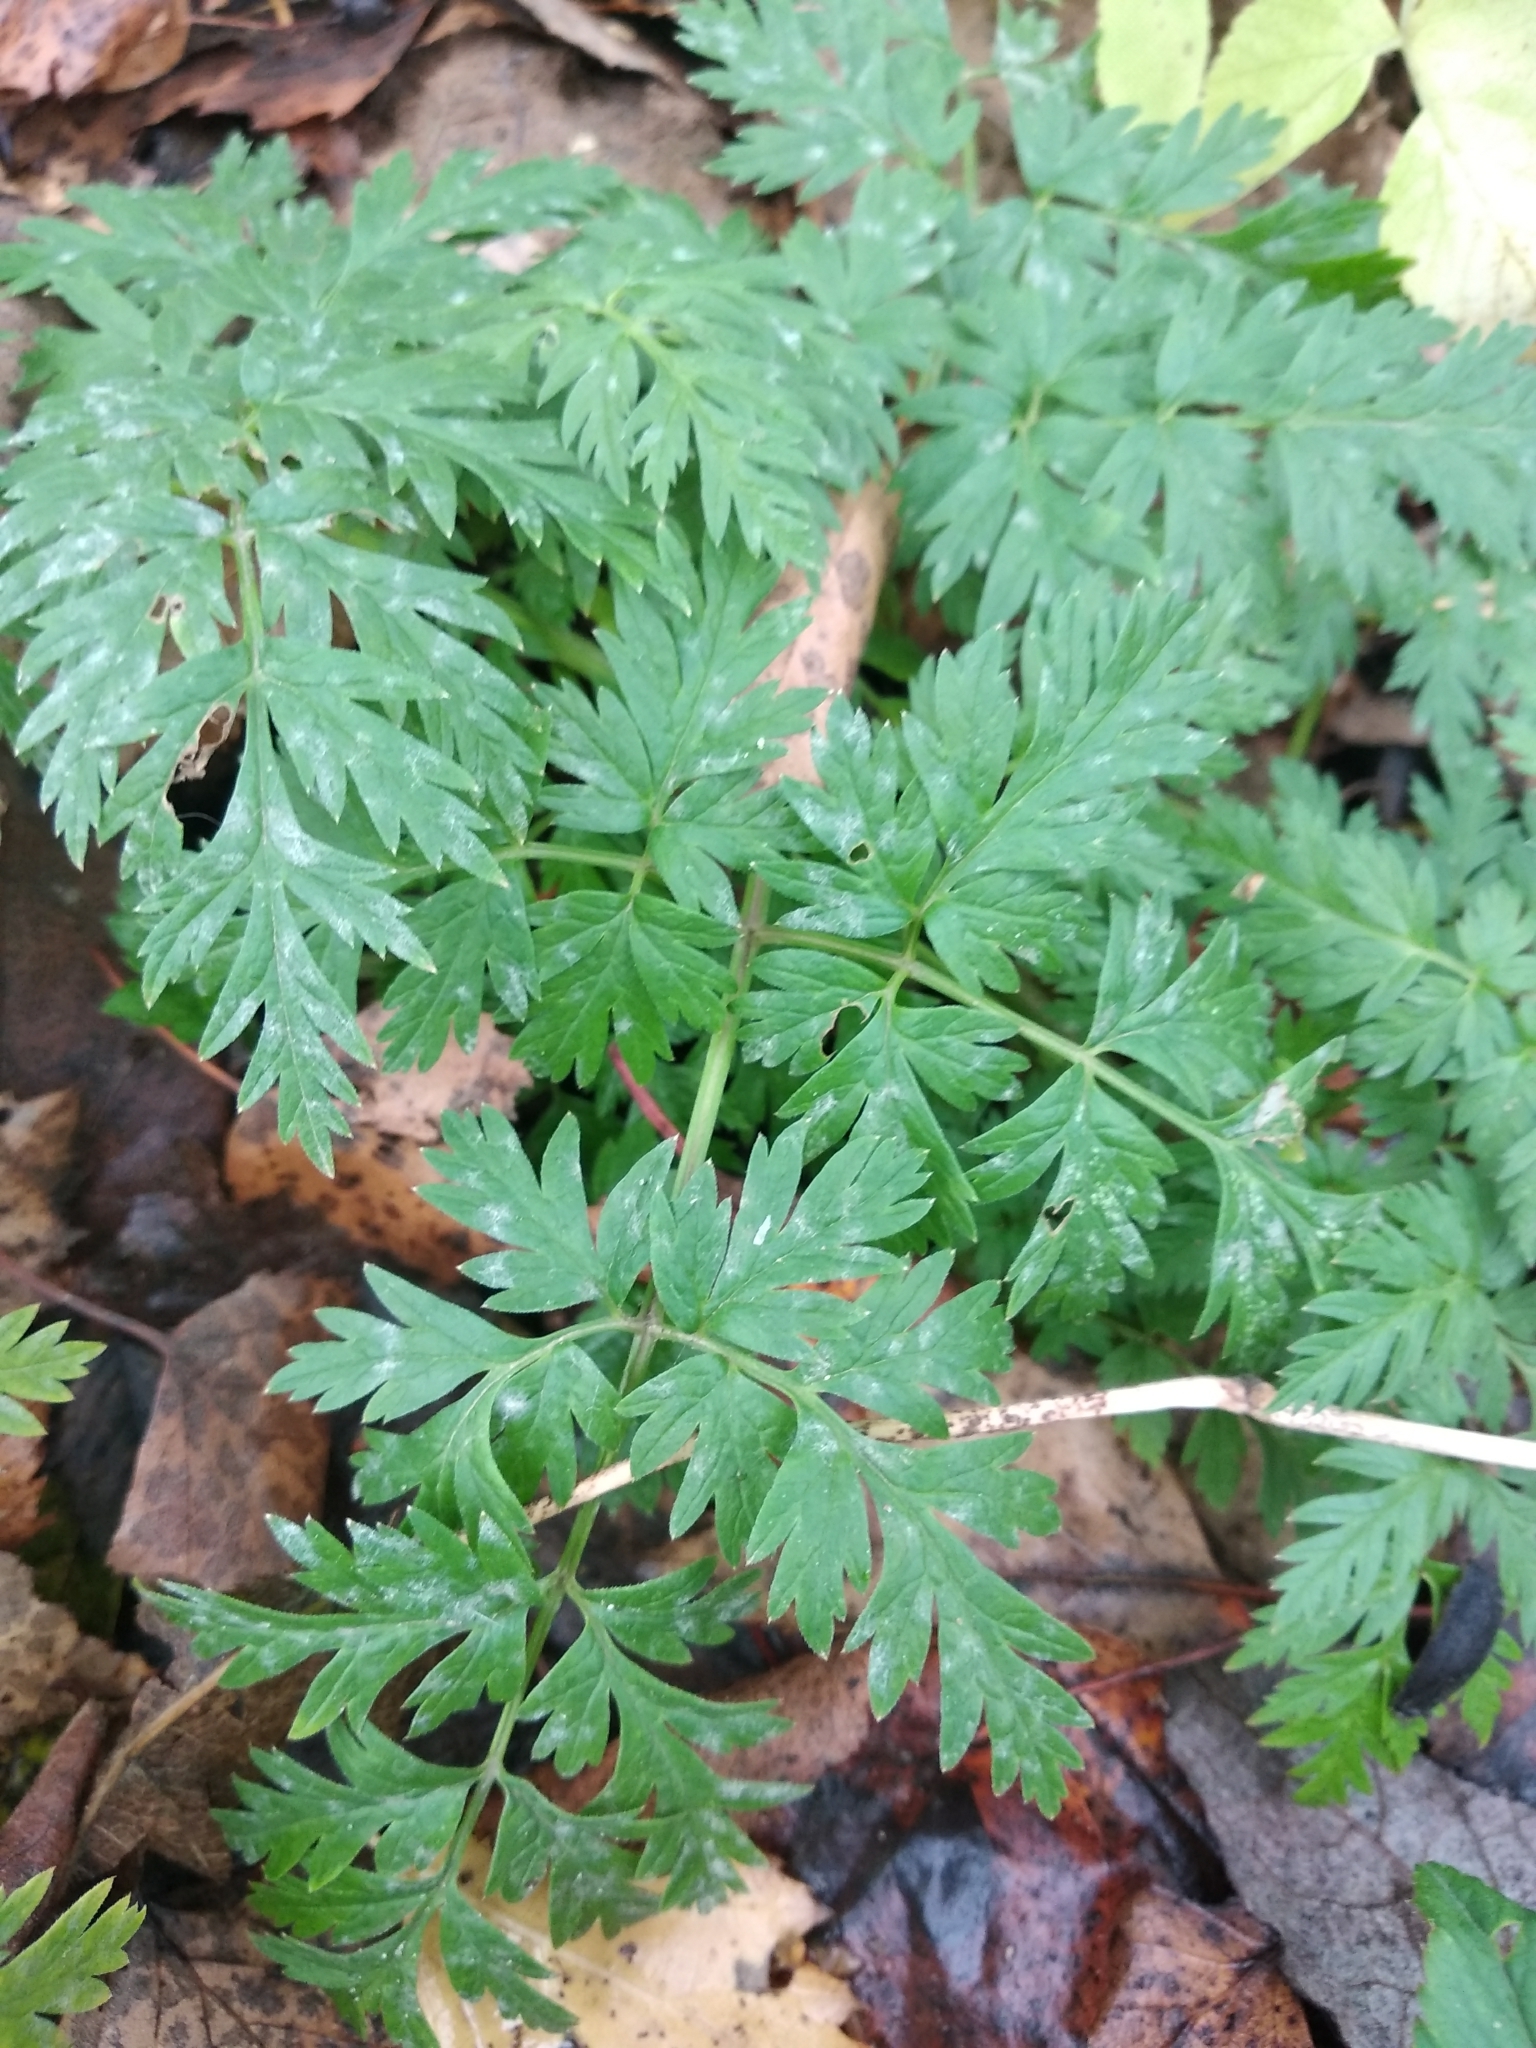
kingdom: Plantae
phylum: Tracheophyta
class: Magnoliopsida
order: Apiales
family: Apiaceae
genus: Anthriscus
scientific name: Anthriscus sylvestris
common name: Cow parsley
